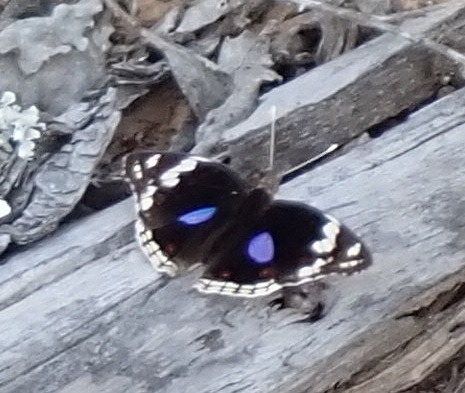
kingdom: Animalia
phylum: Arthropoda
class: Insecta
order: Lepidoptera
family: Nymphalidae
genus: Junonia
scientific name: Junonia oenone
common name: Dark blue pansy
